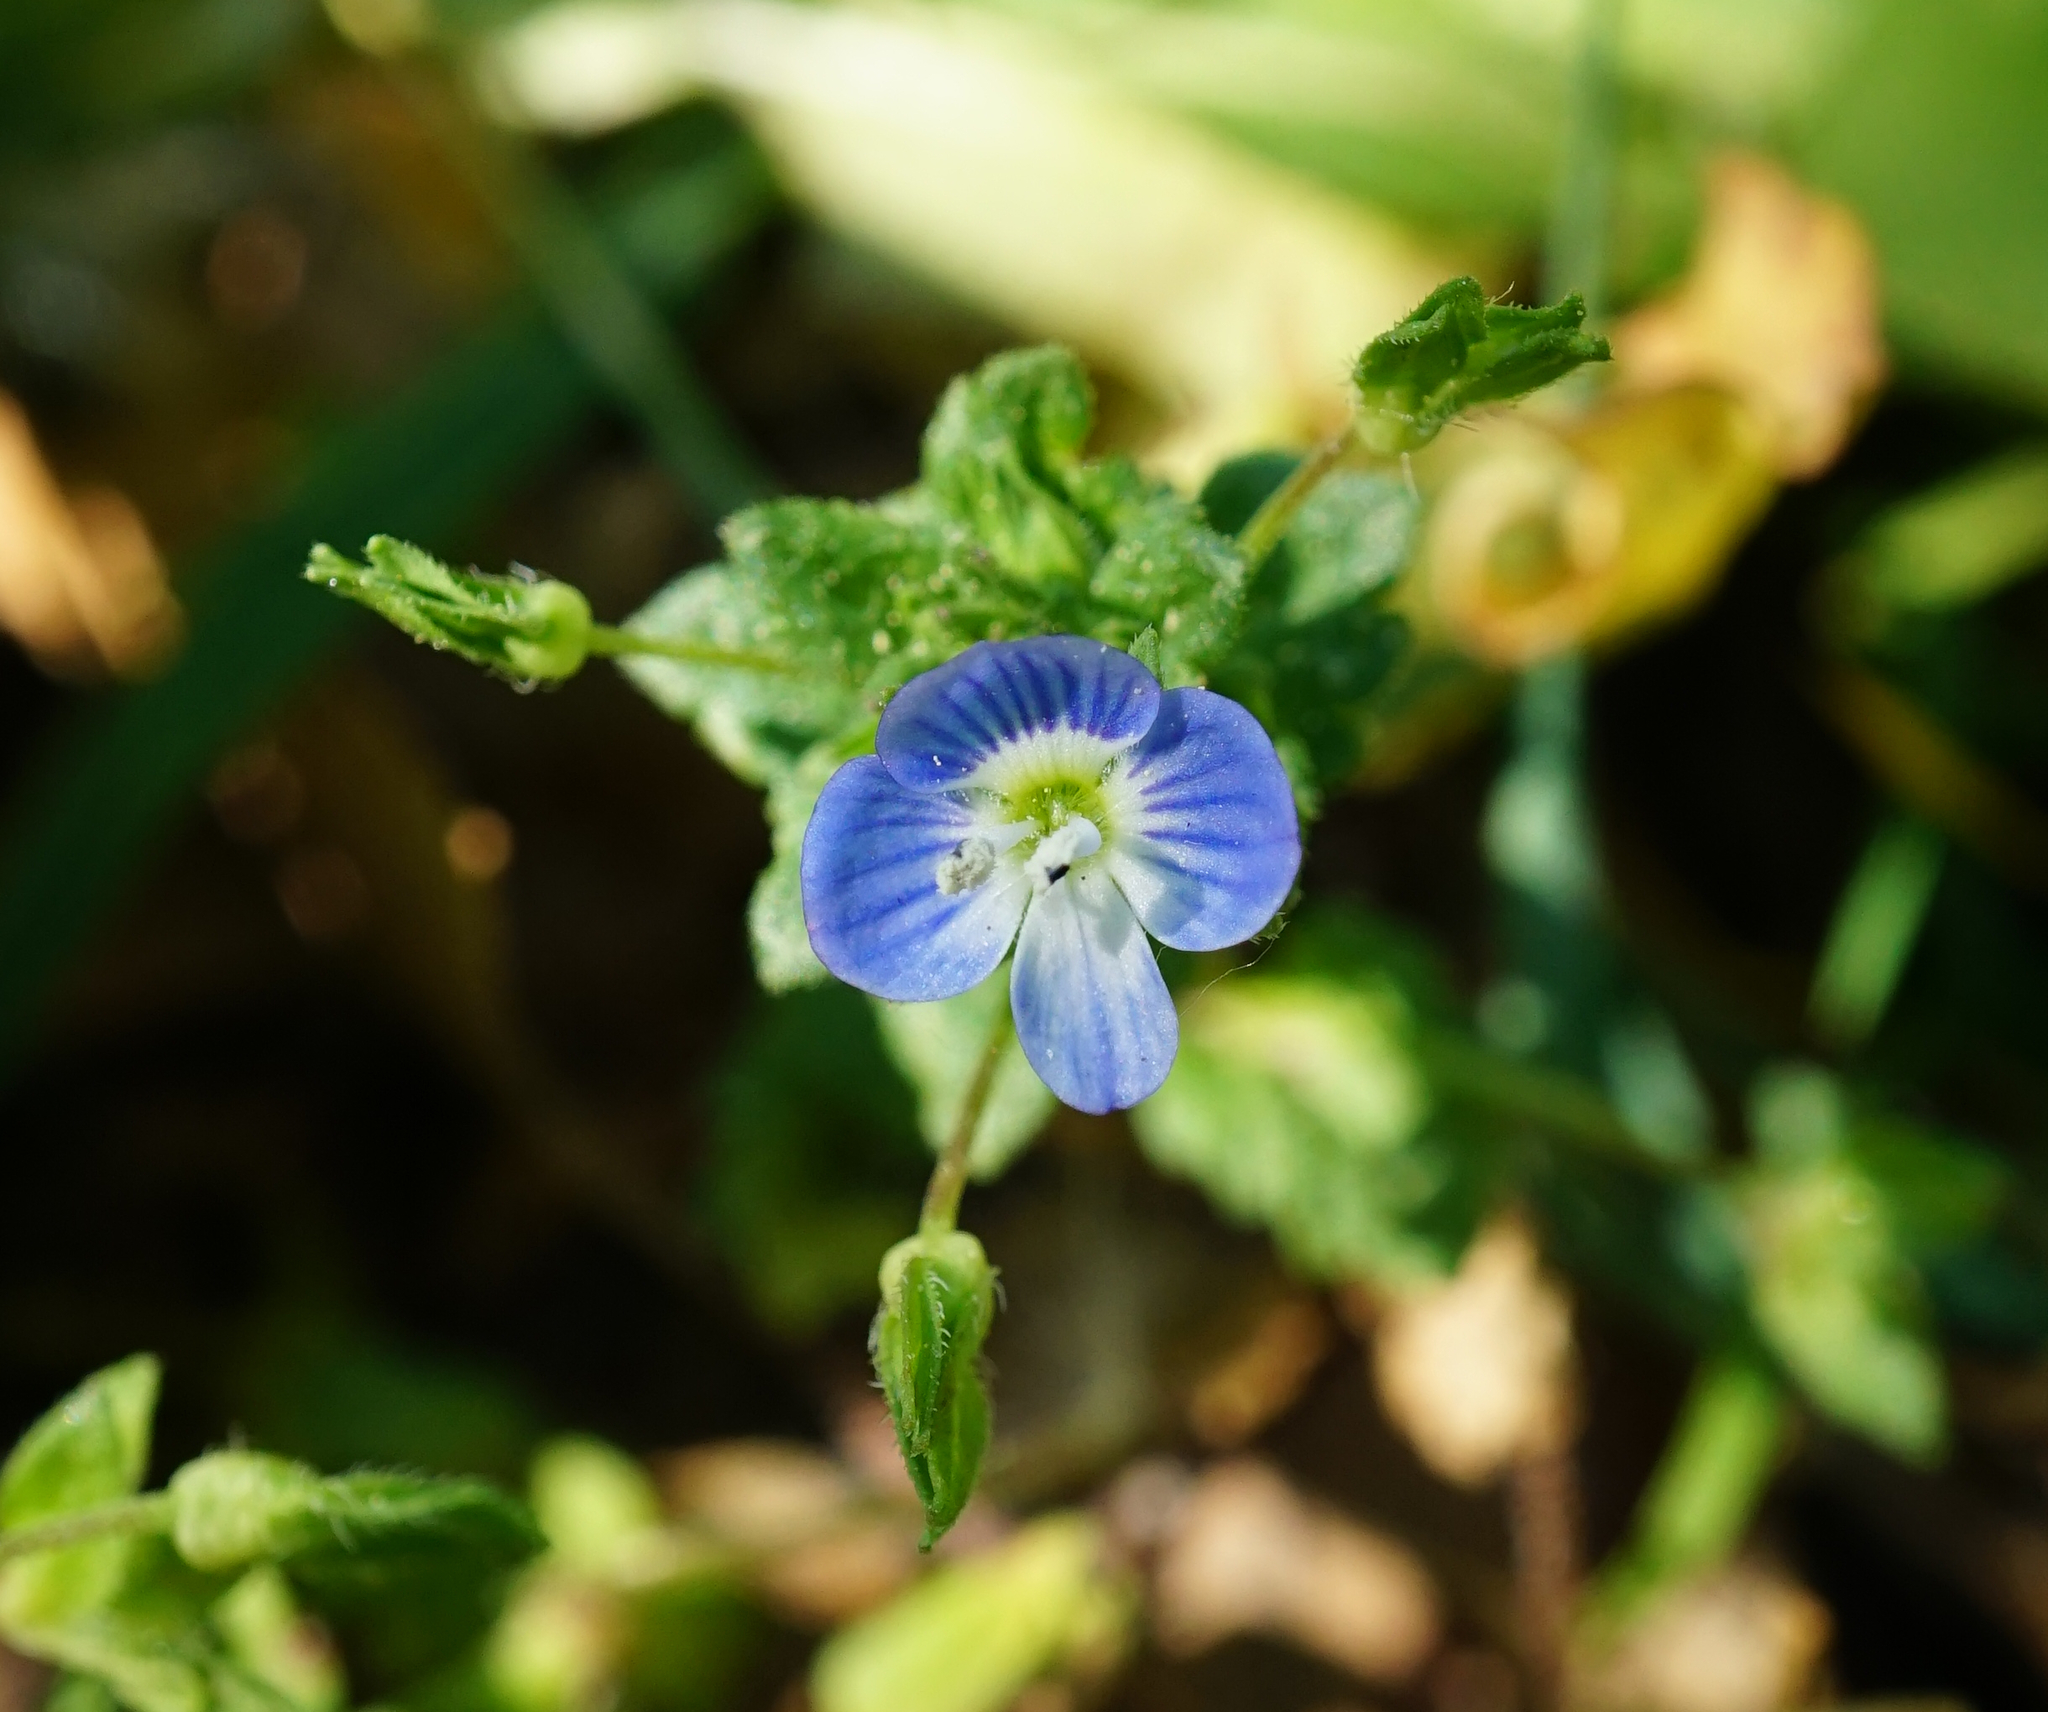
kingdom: Plantae
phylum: Tracheophyta
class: Magnoliopsida
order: Lamiales
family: Plantaginaceae
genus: Veronica
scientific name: Veronica persica
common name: Common field-speedwell
